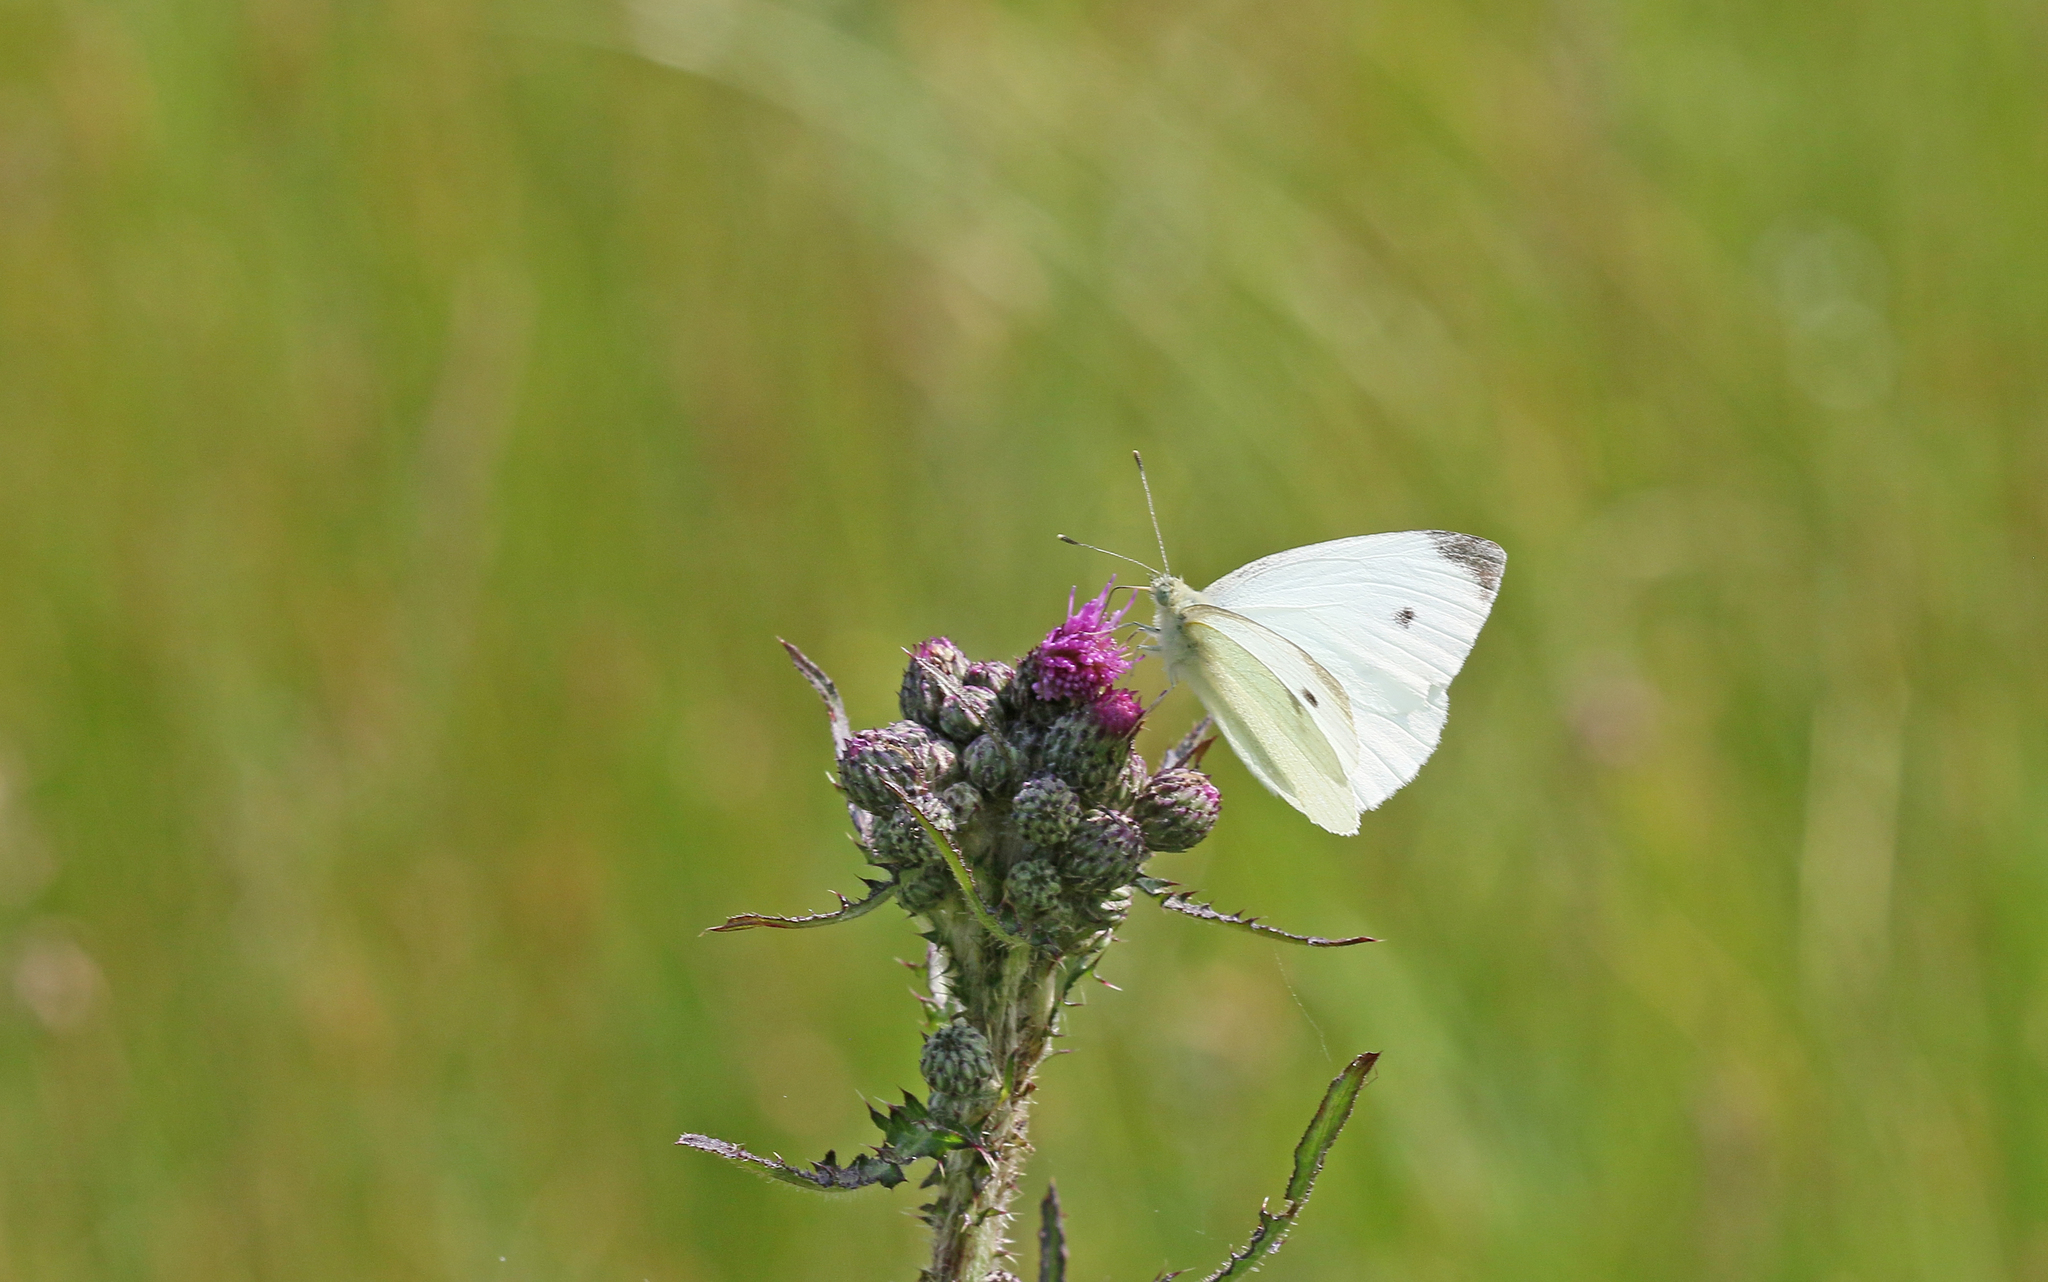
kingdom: Animalia
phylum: Arthropoda
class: Insecta
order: Lepidoptera
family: Pieridae
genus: Pieris
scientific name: Pieris rapae
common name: Small white
